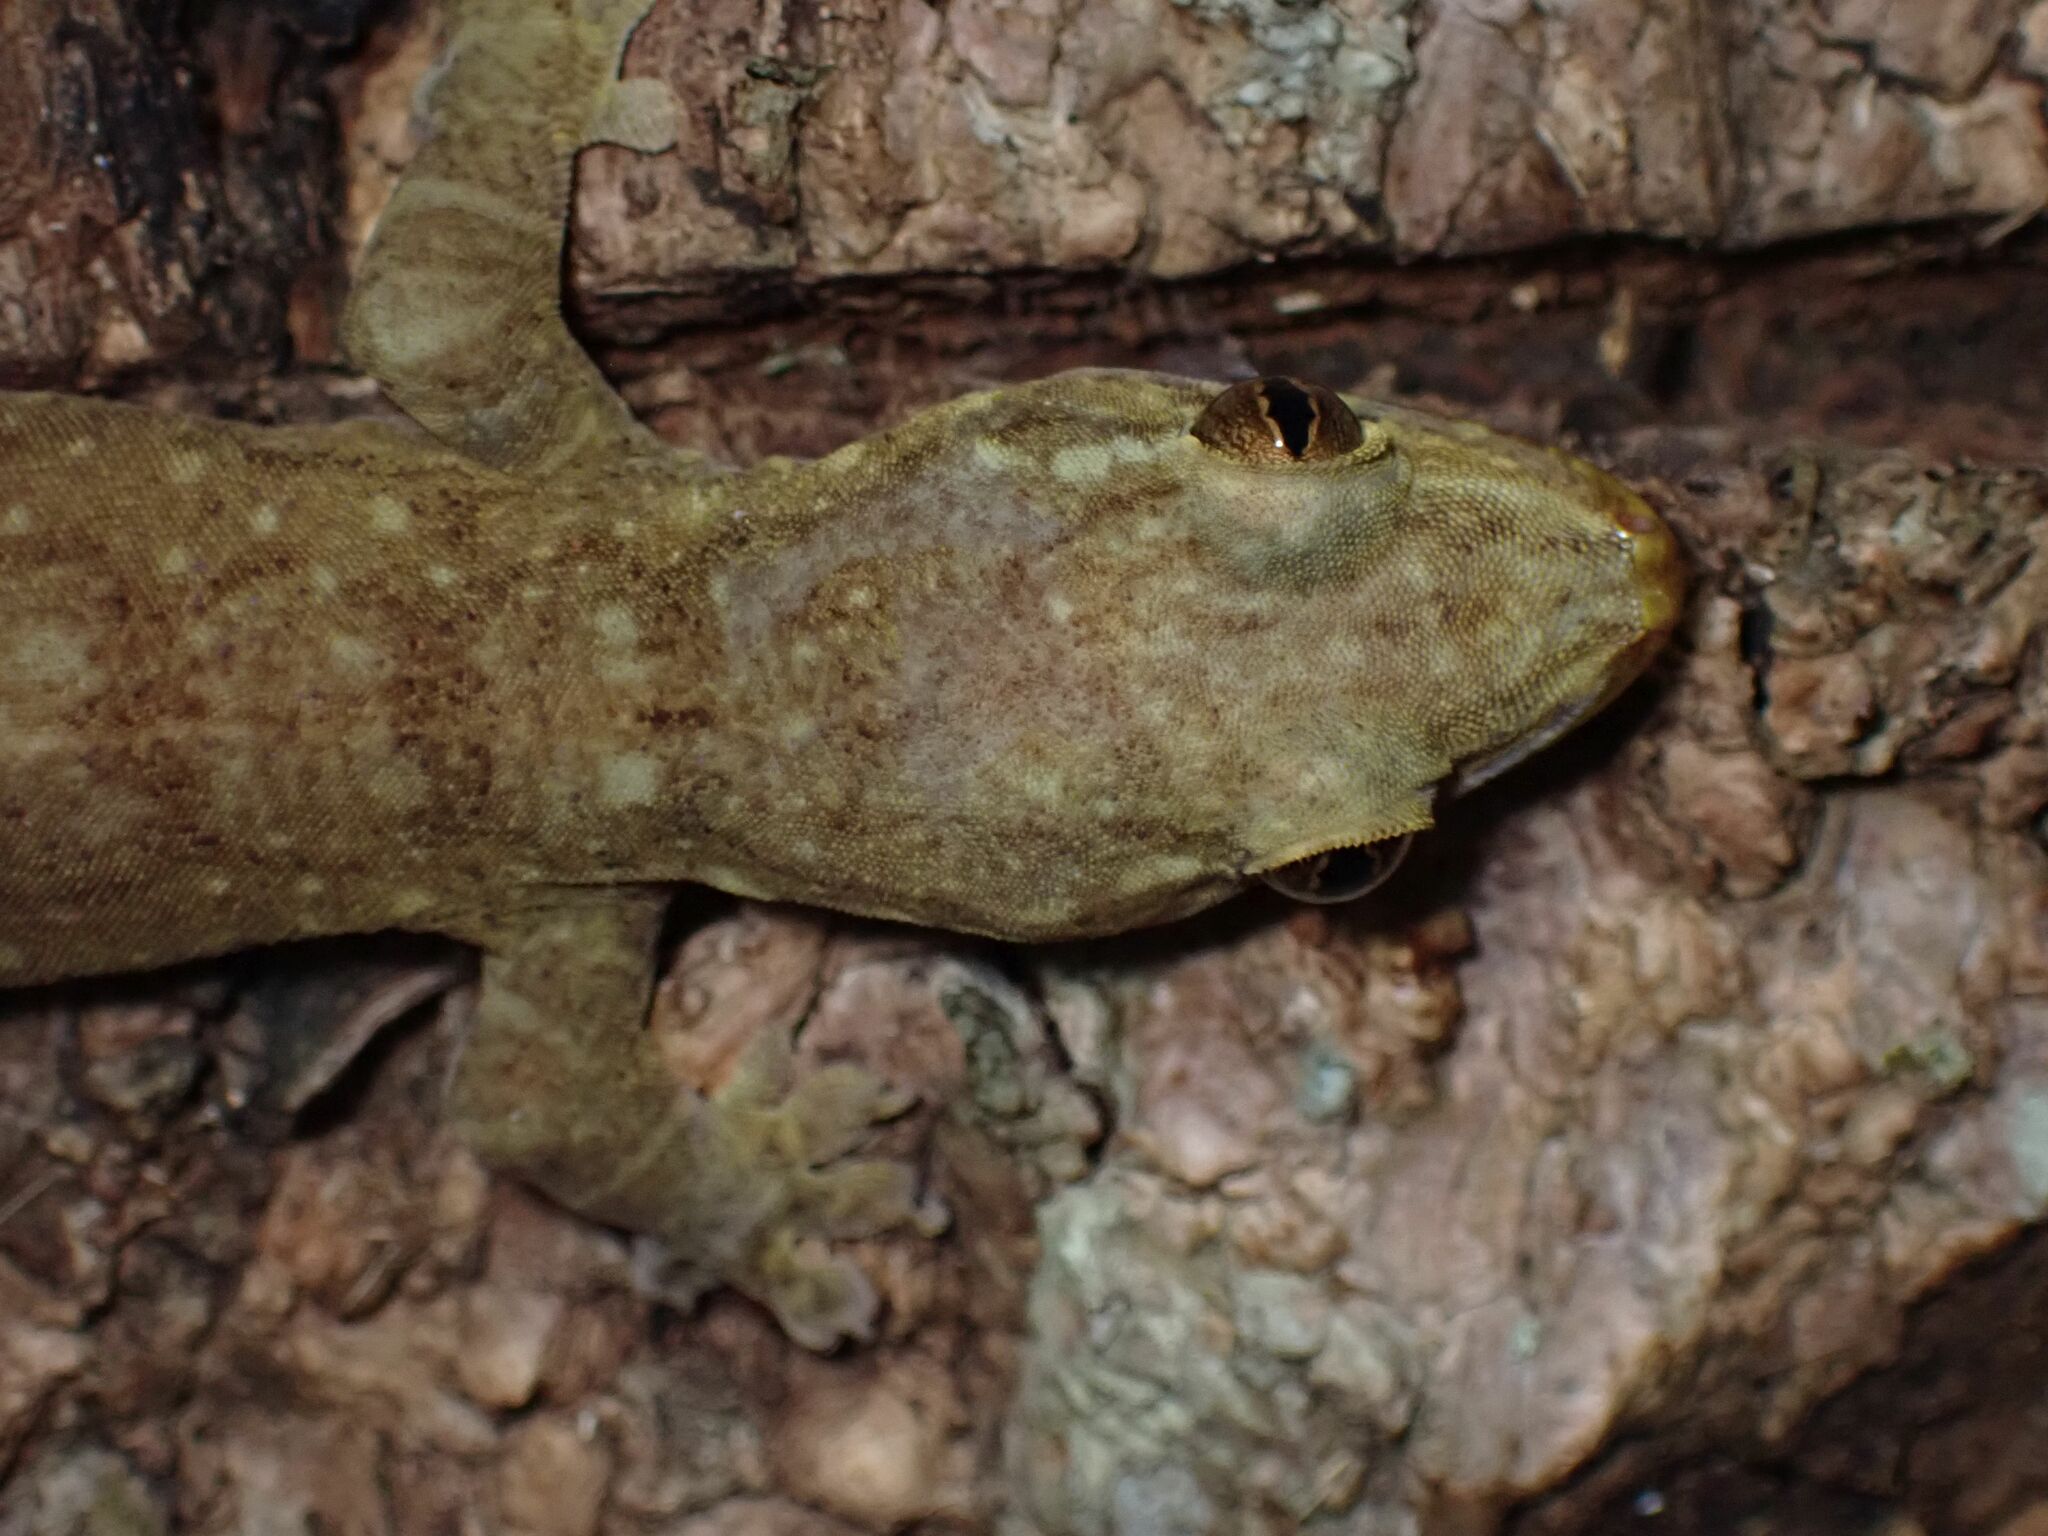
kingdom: Animalia
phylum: Chordata
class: Squamata
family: Gekkonidae
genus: Gehyra
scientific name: Gehyra oceanica
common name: Pacific dtella
